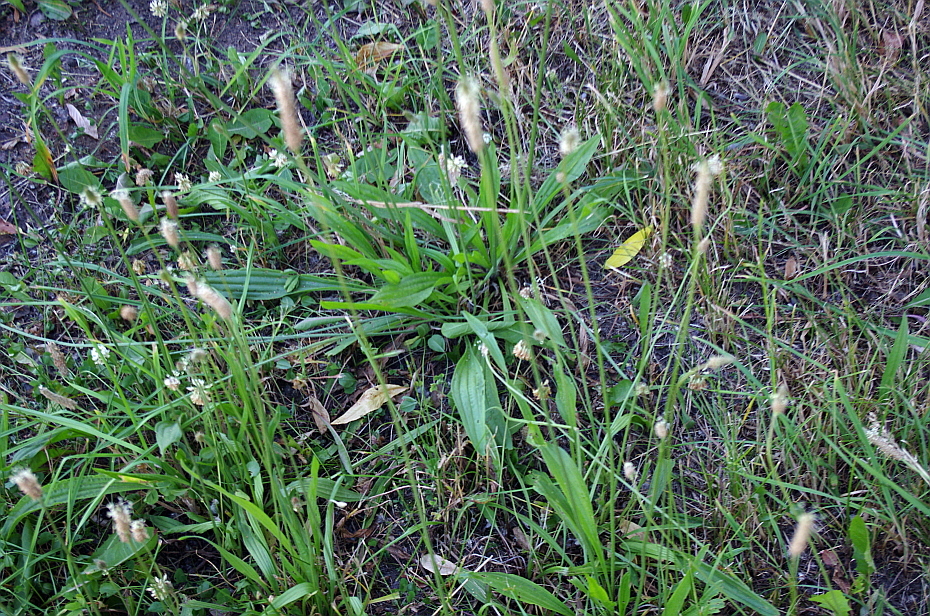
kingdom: Plantae
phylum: Tracheophyta
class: Magnoliopsida
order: Lamiales
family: Plantaginaceae
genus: Plantago
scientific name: Plantago lanceolata
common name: Ribwort plantain
